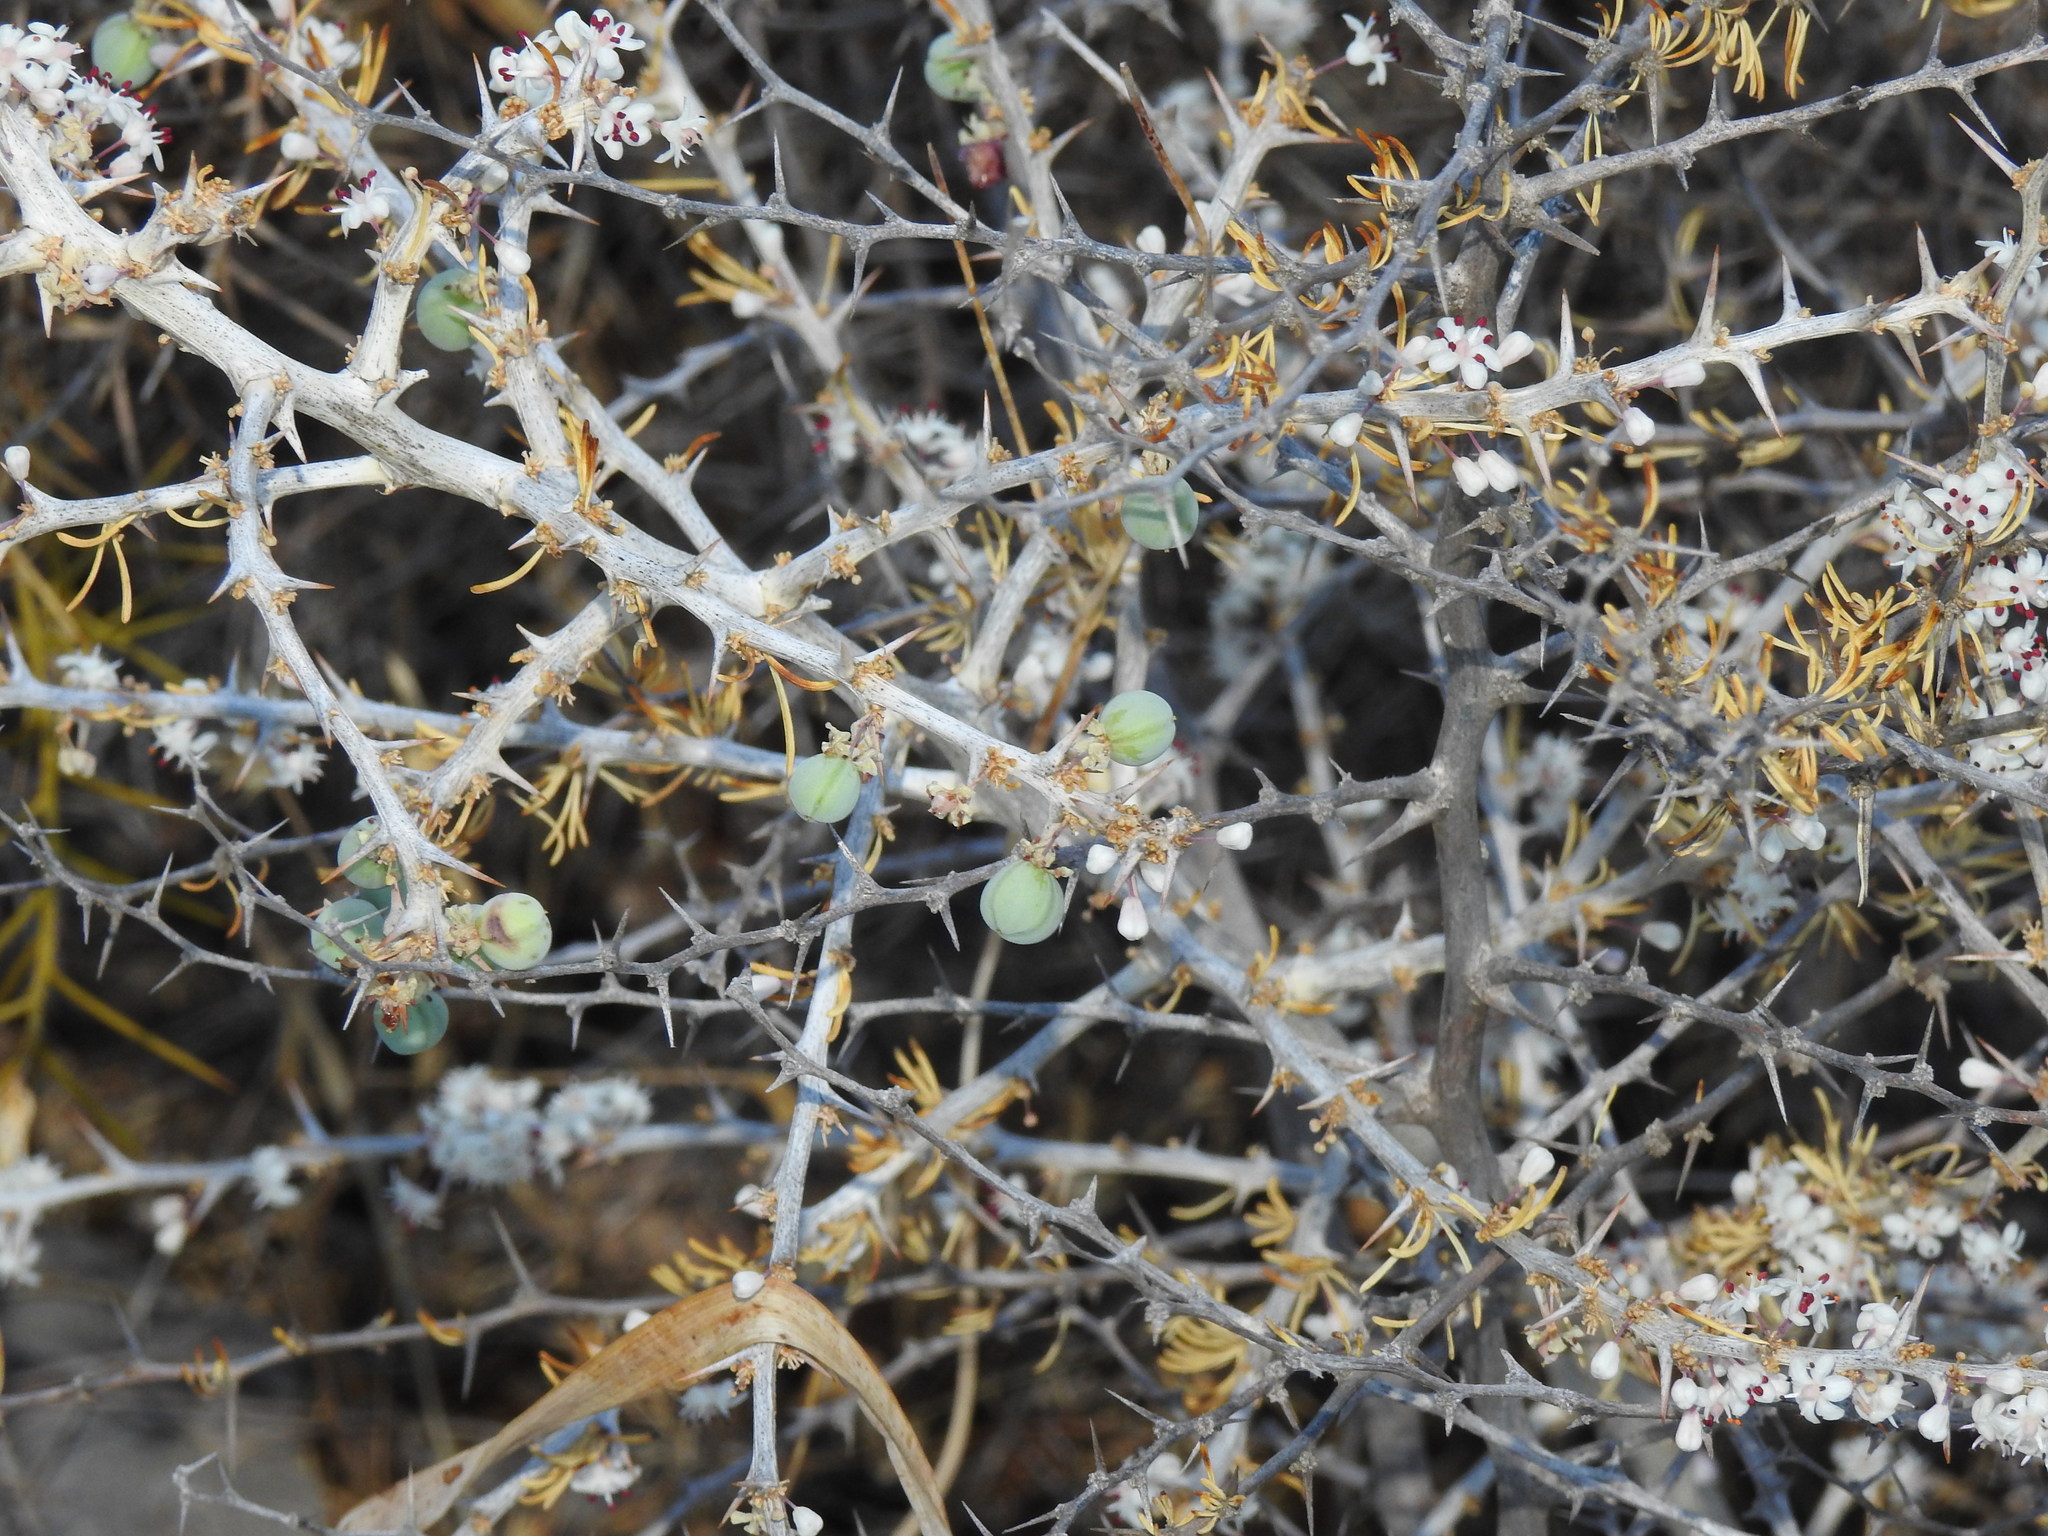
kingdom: Plantae
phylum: Tracheophyta
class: Liliopsida
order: Asparagales
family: Asparagaceae
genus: Asparagus
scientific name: Asparagus albus
